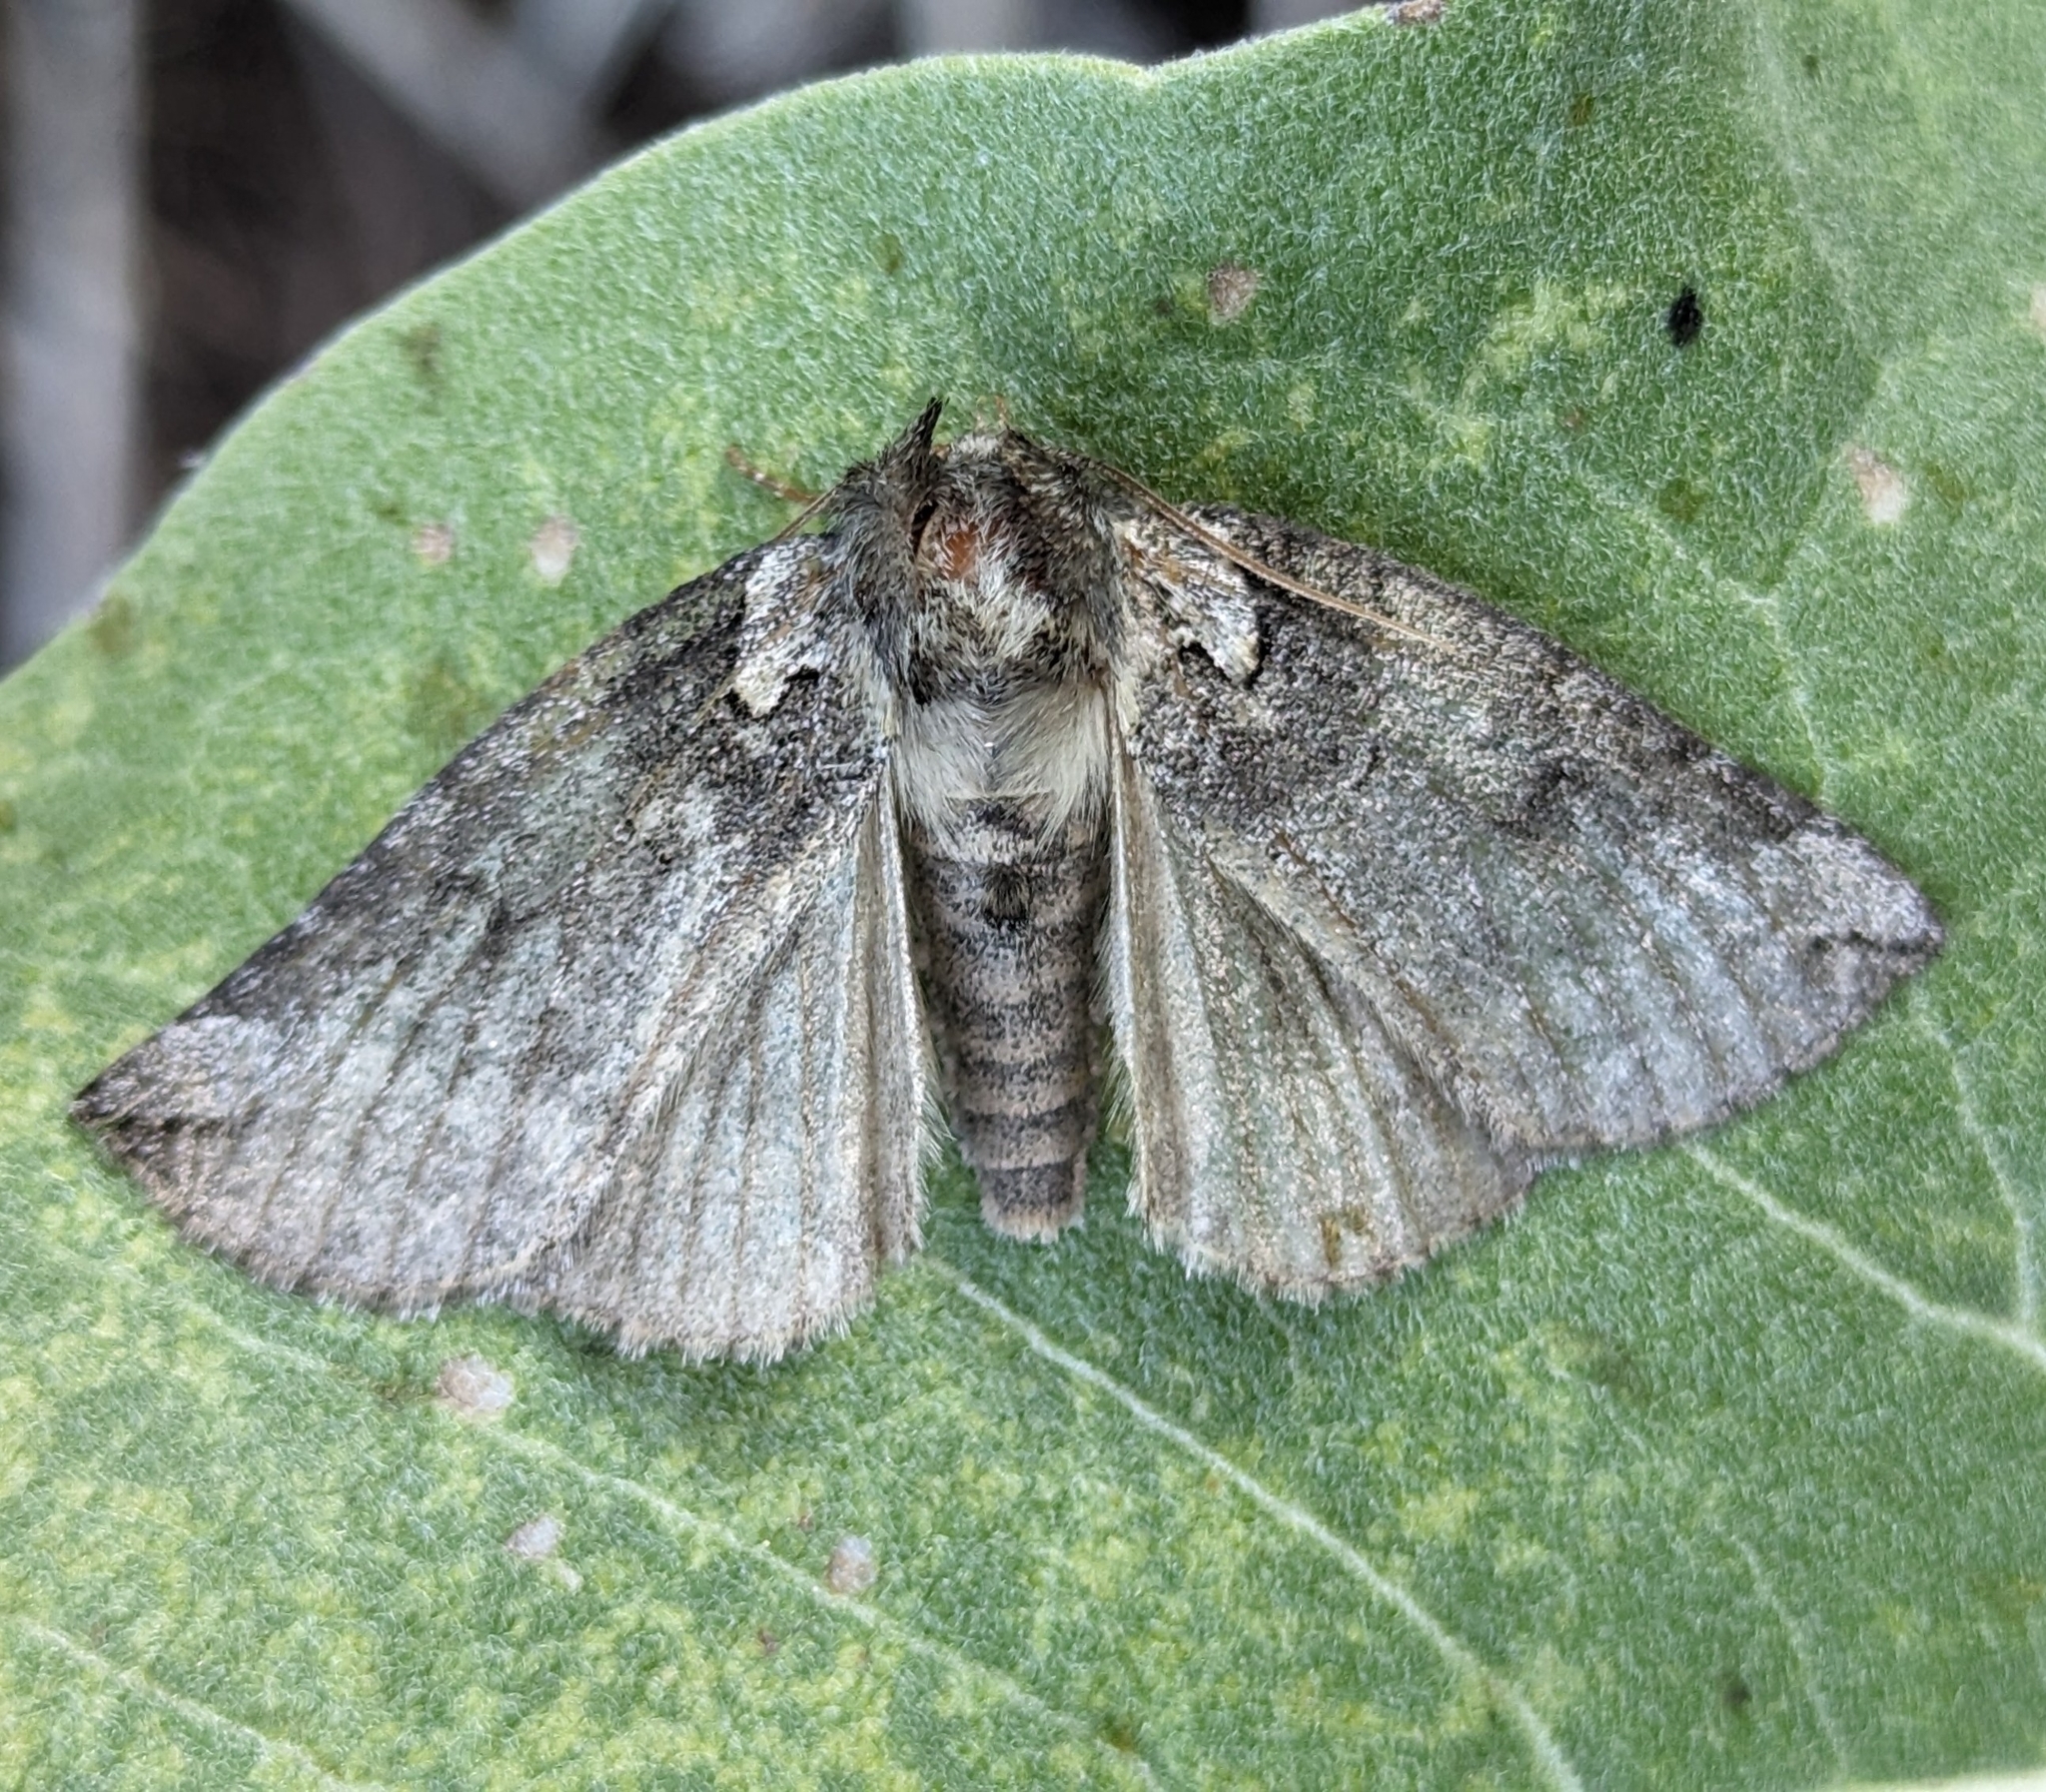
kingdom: Animalia
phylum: Arthropoda
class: Insecta
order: Lepidoptera
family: Drepanidae
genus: Euthyatira
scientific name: Euthyatira semicircularis
